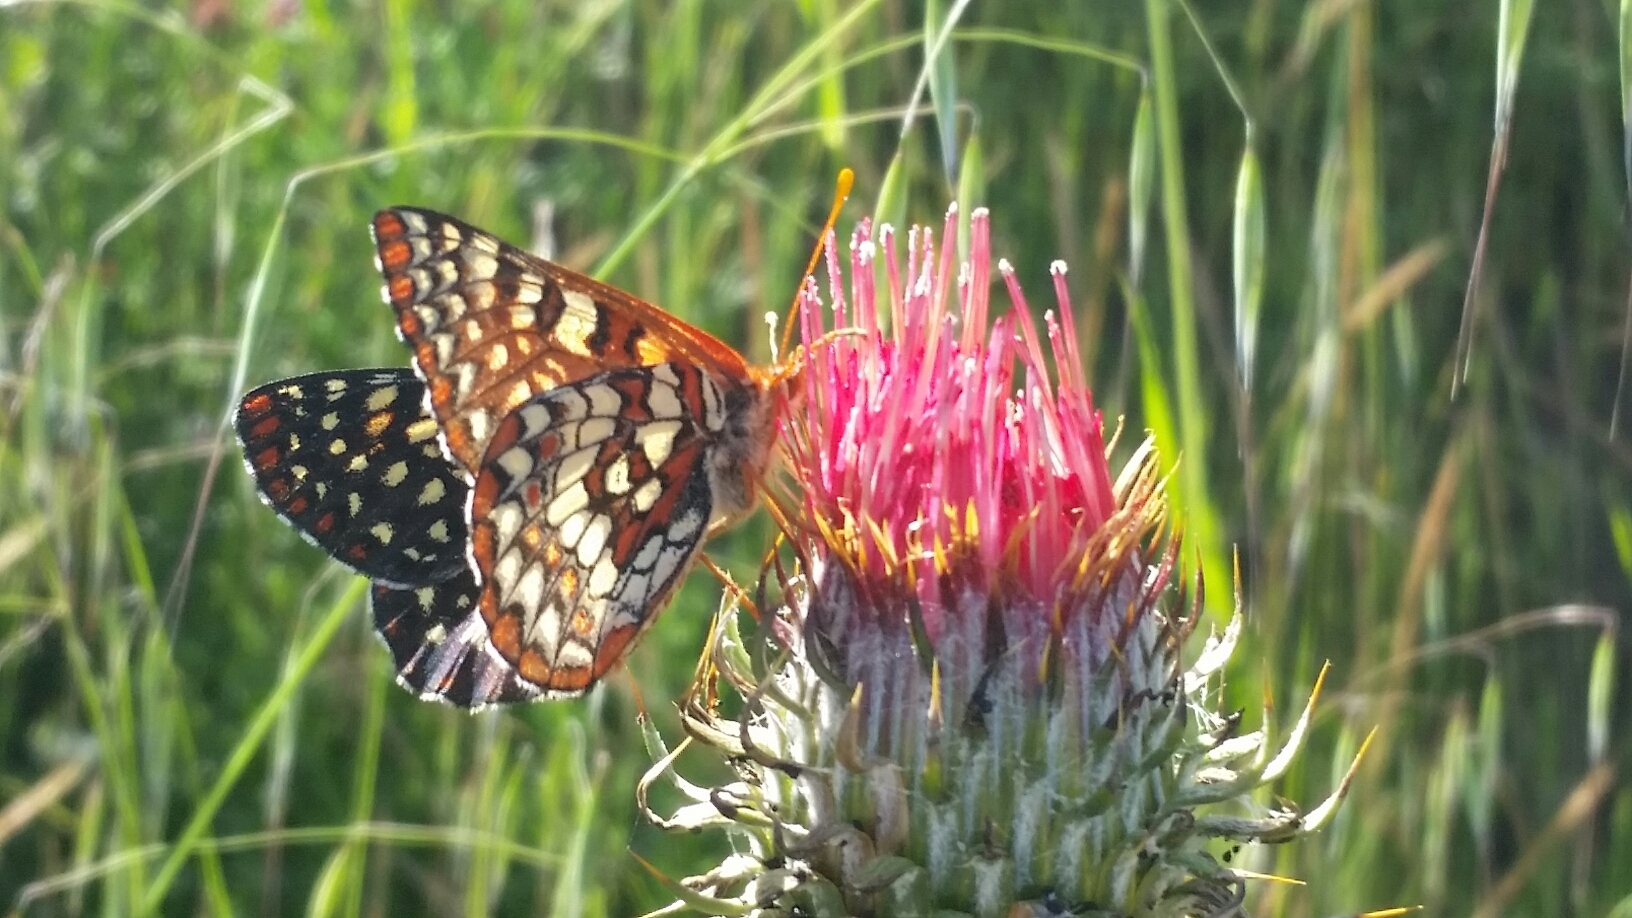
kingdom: Animalia
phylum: Arthropoda
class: Insecta
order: Lepidoptera
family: Nymphalidae
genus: Occidryas
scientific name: Occidryas chalcedona
